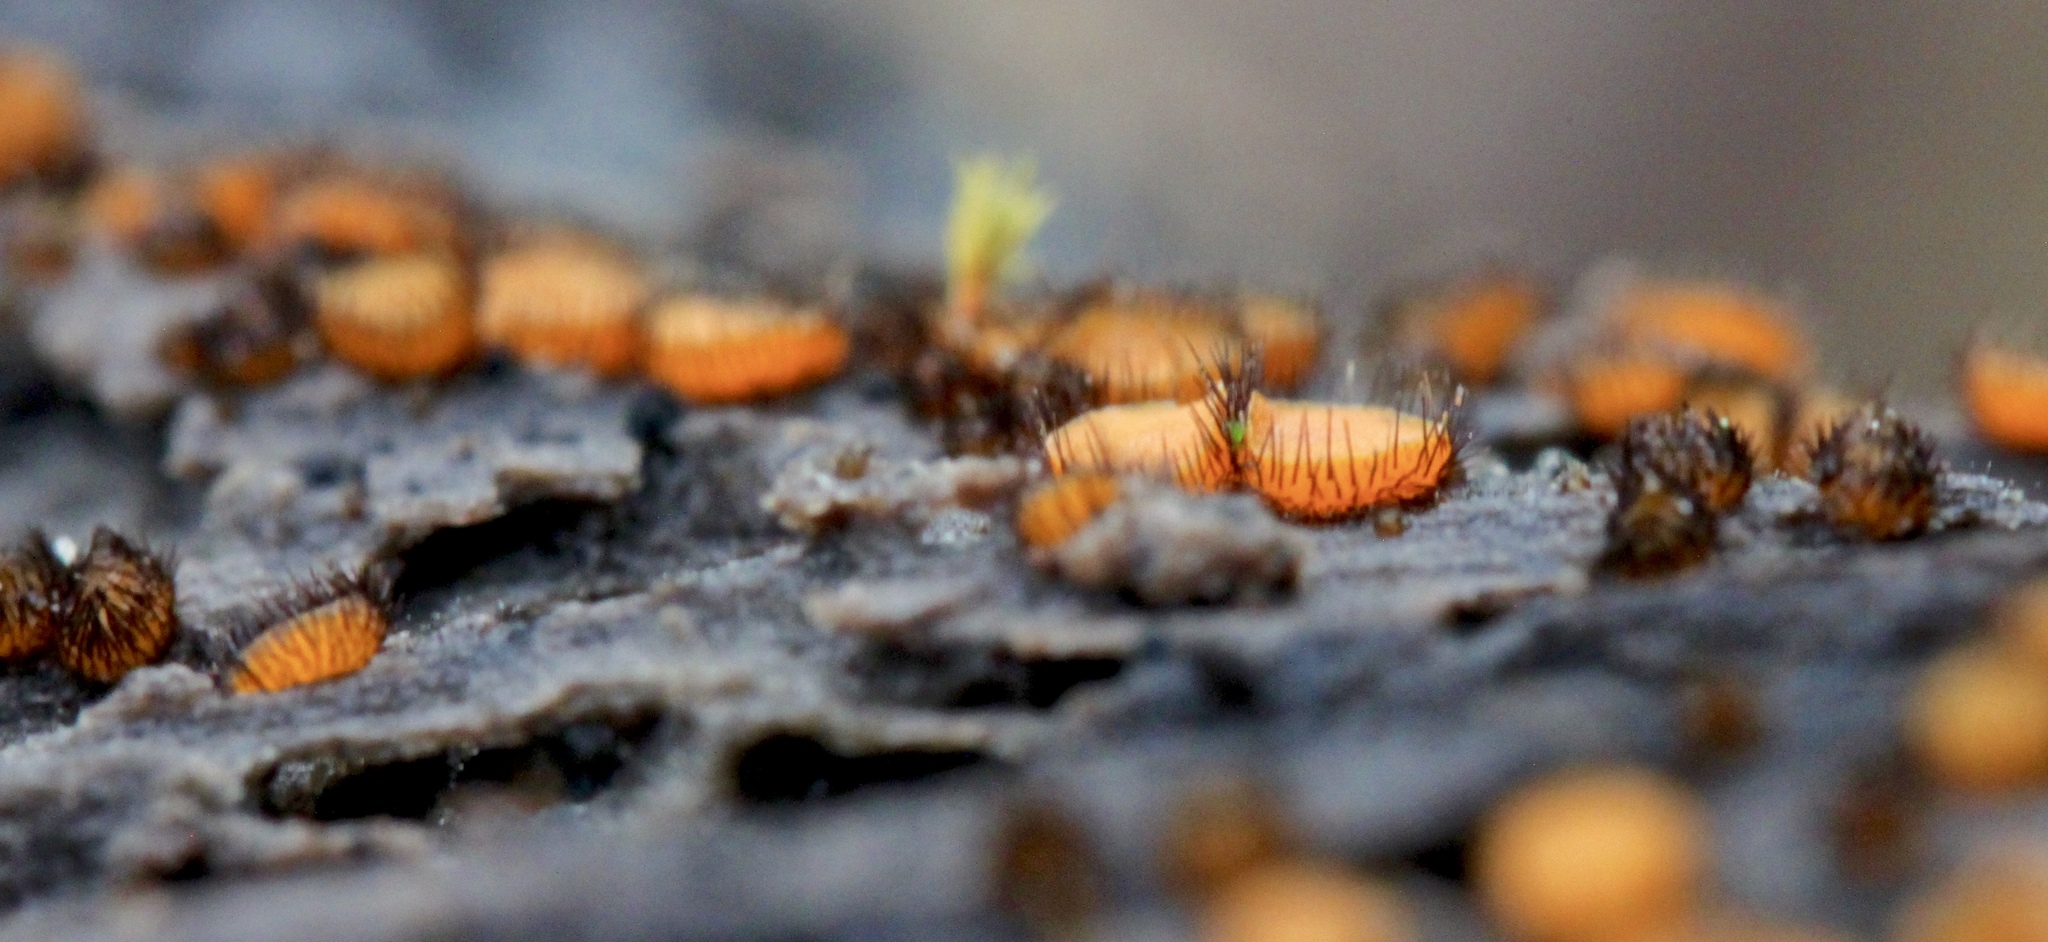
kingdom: Fungi
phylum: Ascomycota
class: Pezizomycetes
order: Pezizales
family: Pyronemataceae
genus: Scutellinia
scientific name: Scutellinia setosa
